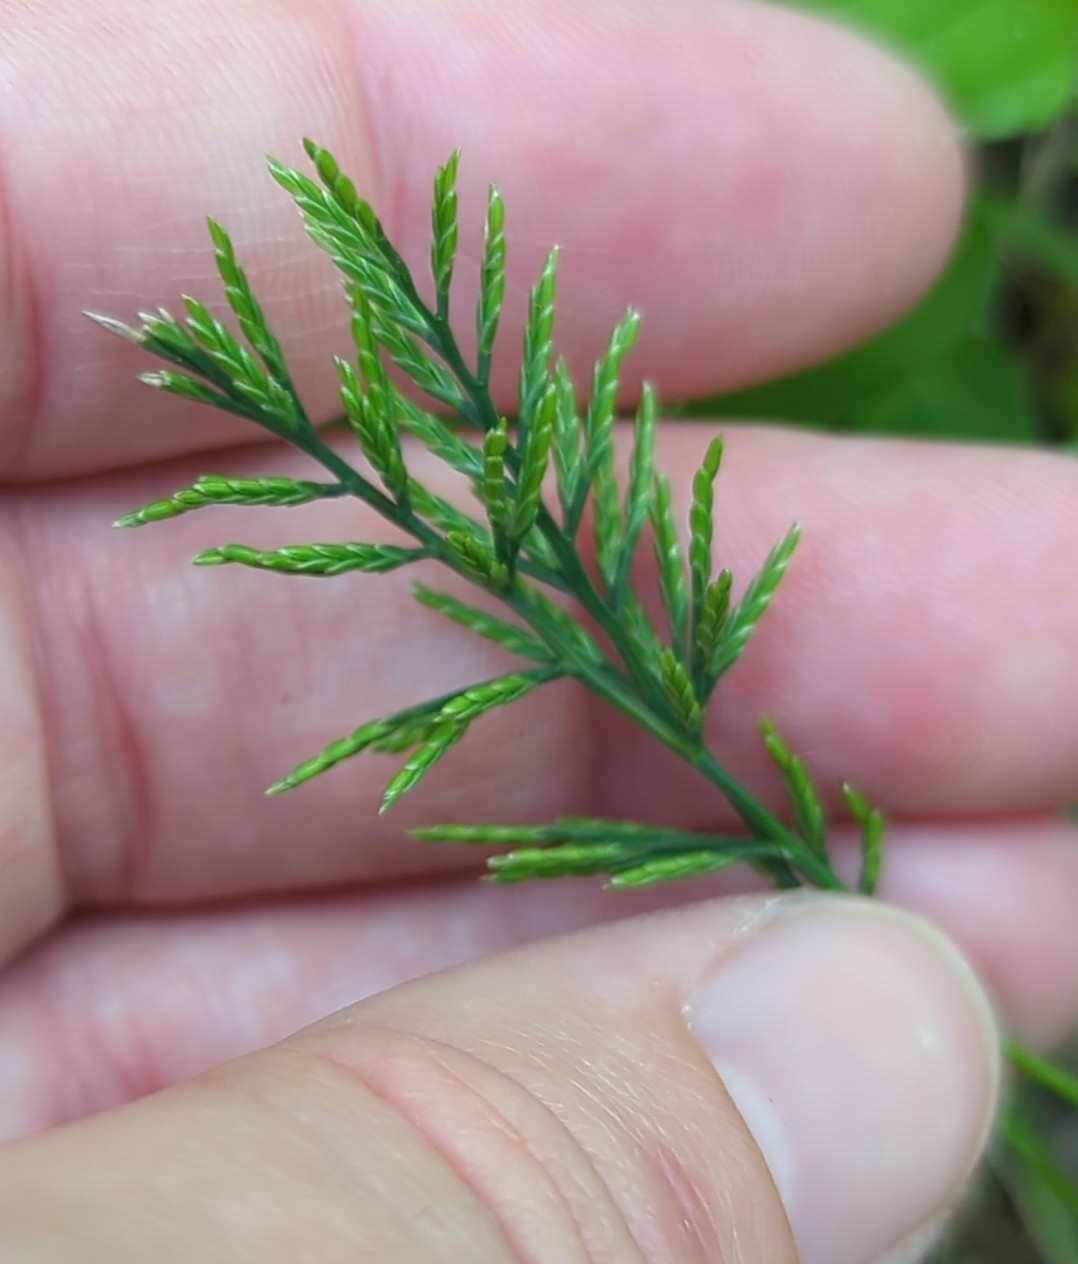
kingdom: Plantae
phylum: Tracheophyta
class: Liliopsida
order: Poales
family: Poaceae
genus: Catapodium
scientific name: Catapodium rigidum
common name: Fern-grass
